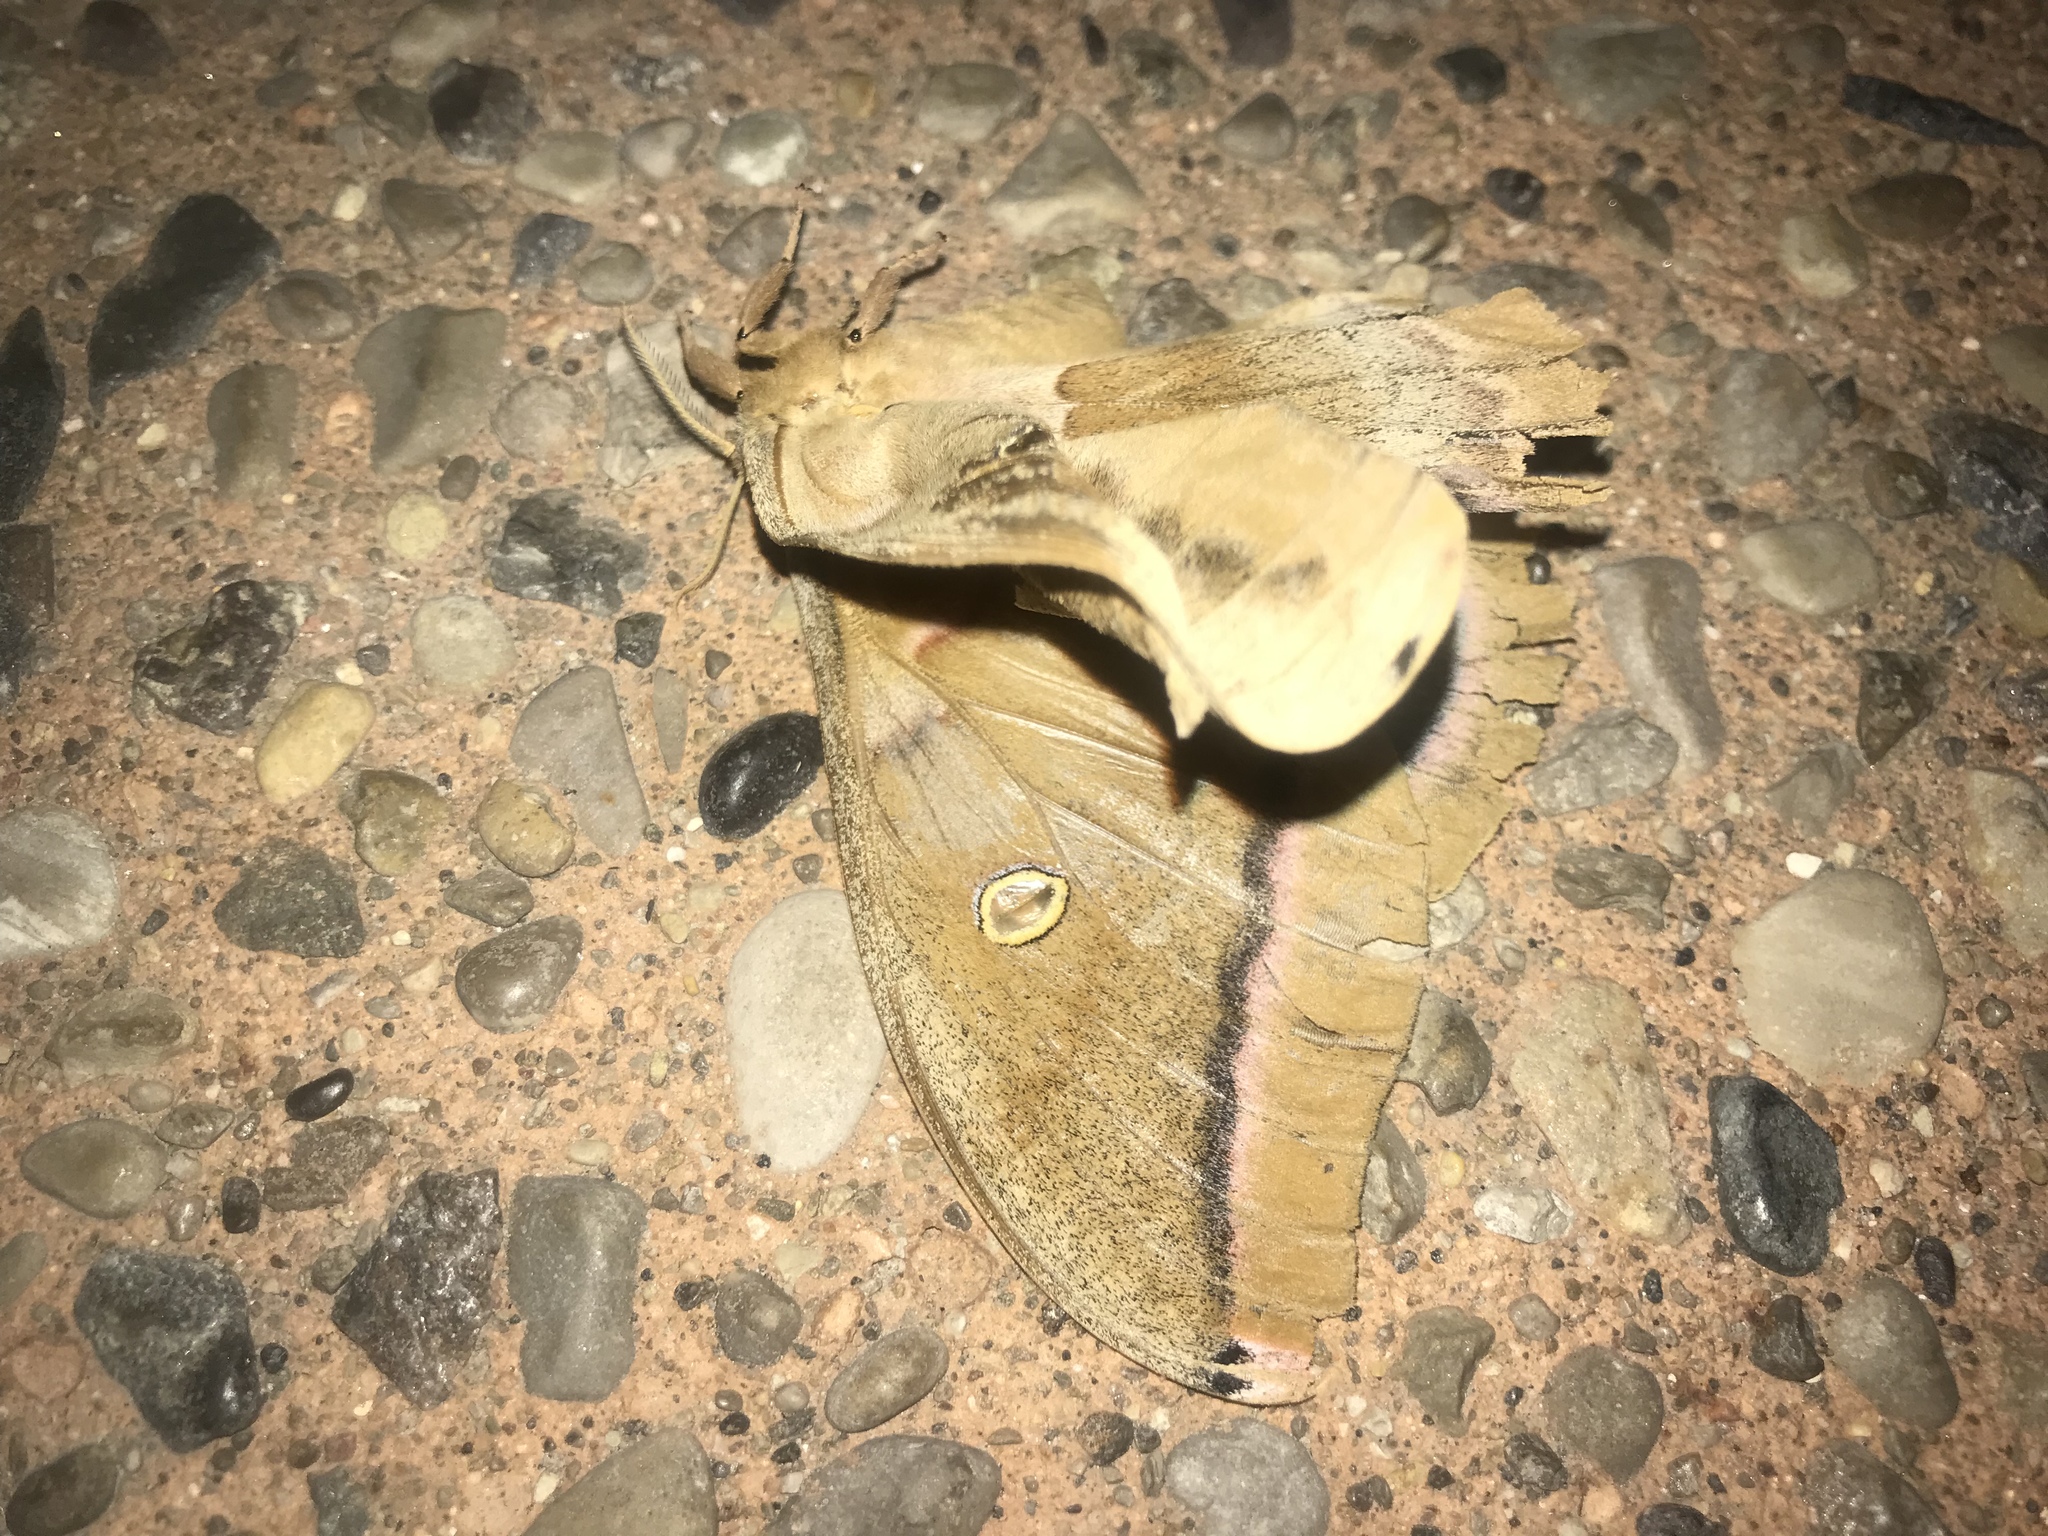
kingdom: Animalia
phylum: Arthropoda
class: Insecta
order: Lepidoptera
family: Saturniidae
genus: Antheraea
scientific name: Antheraea polyphemus
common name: Polyphemus moth
